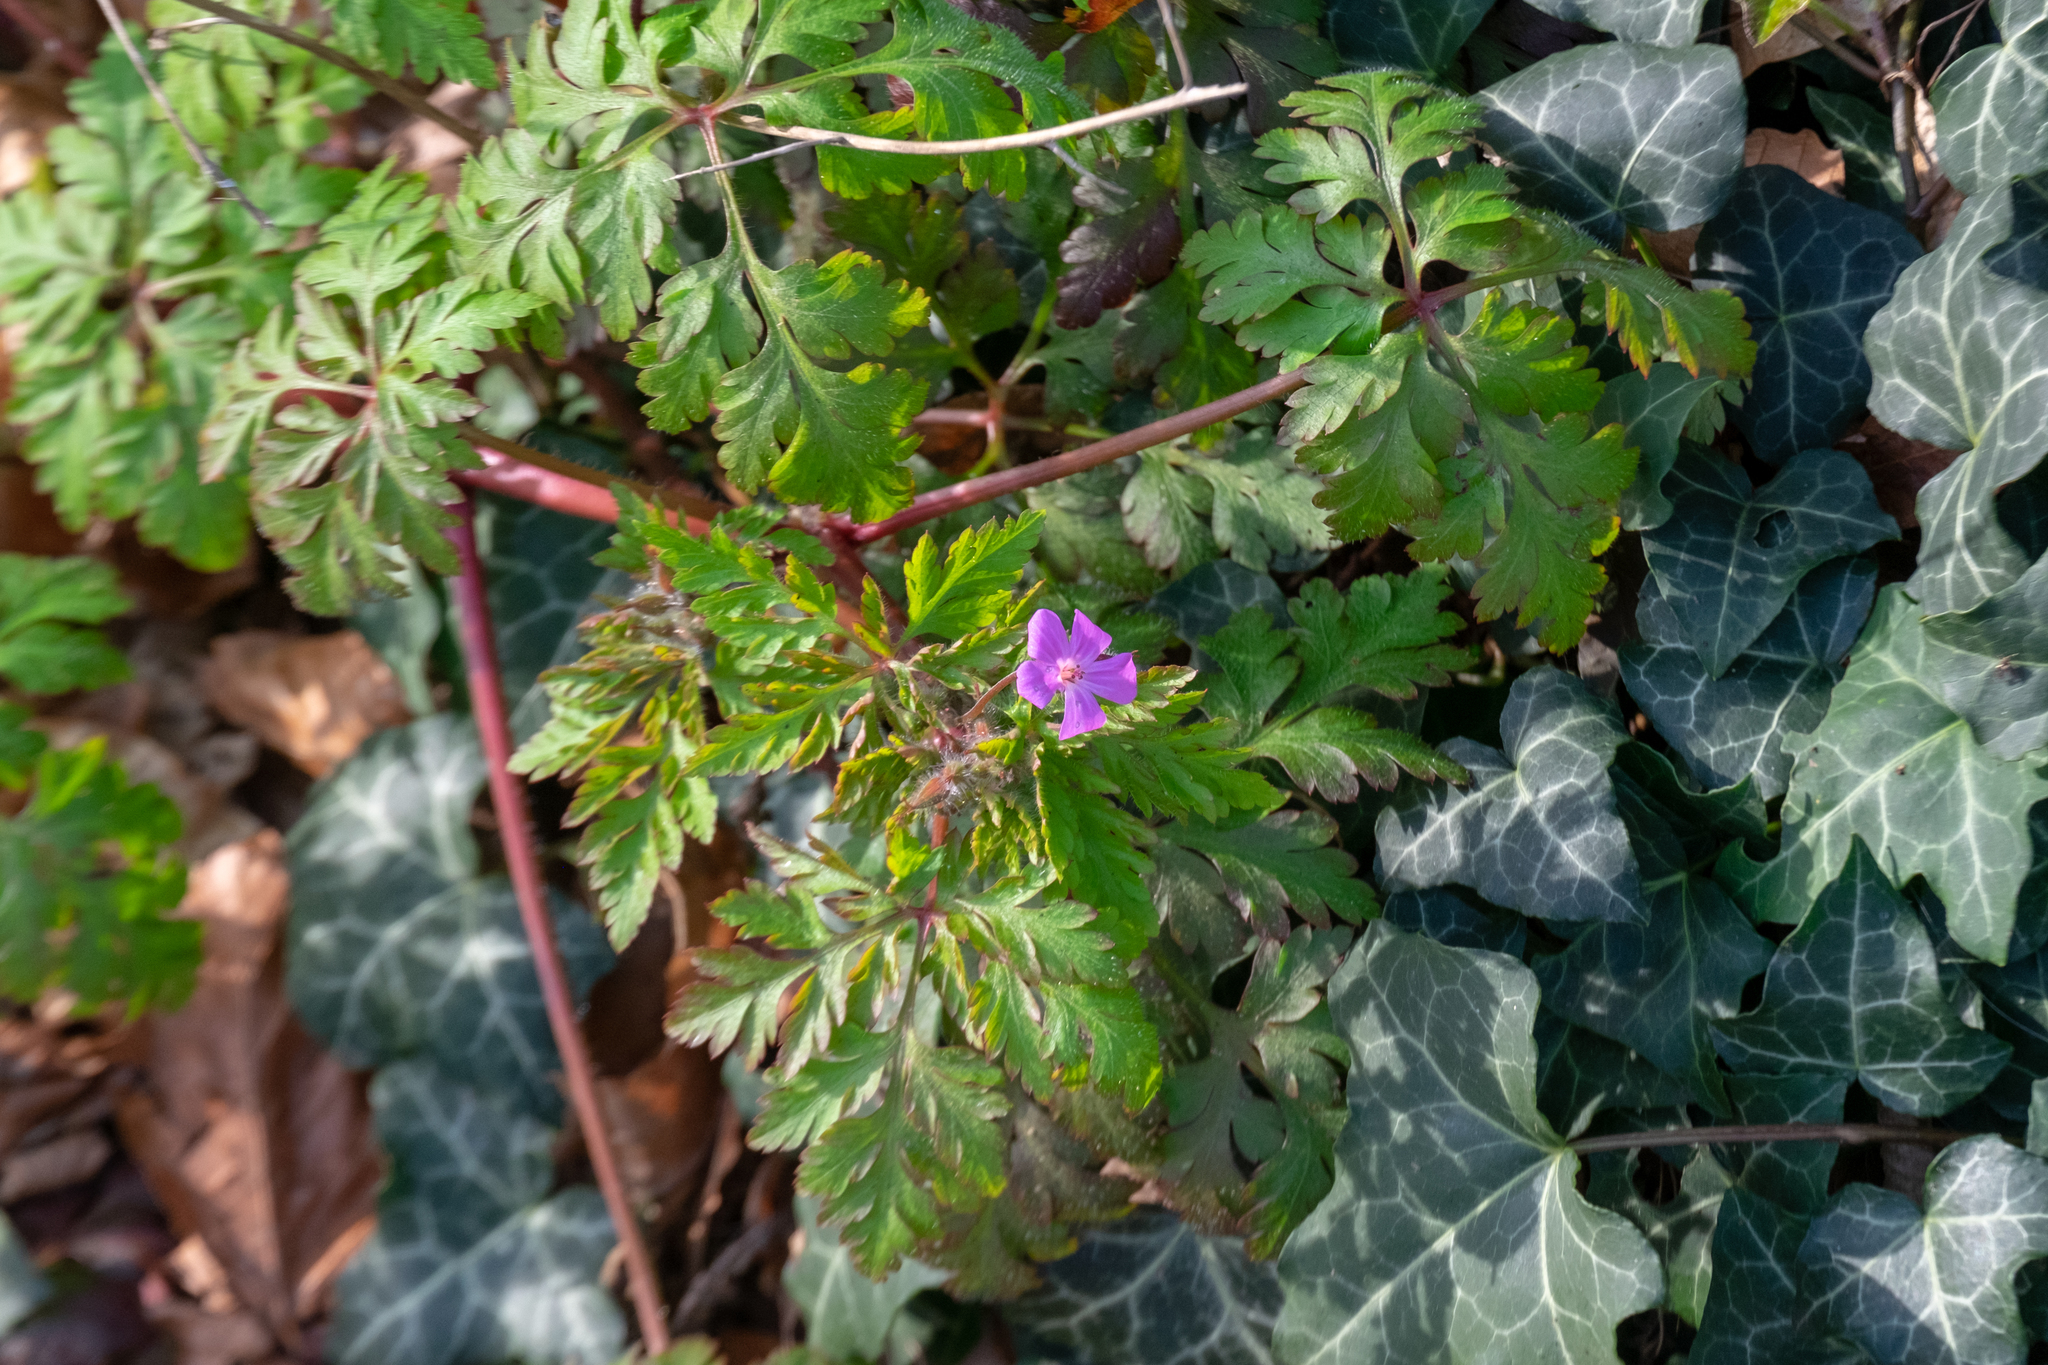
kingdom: Plantae
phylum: Tracheophyta
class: Magnoliopsida
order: Geraniales
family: Geraniaceae
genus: Geranium
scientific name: Geranium robertianum
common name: Herb-robert
